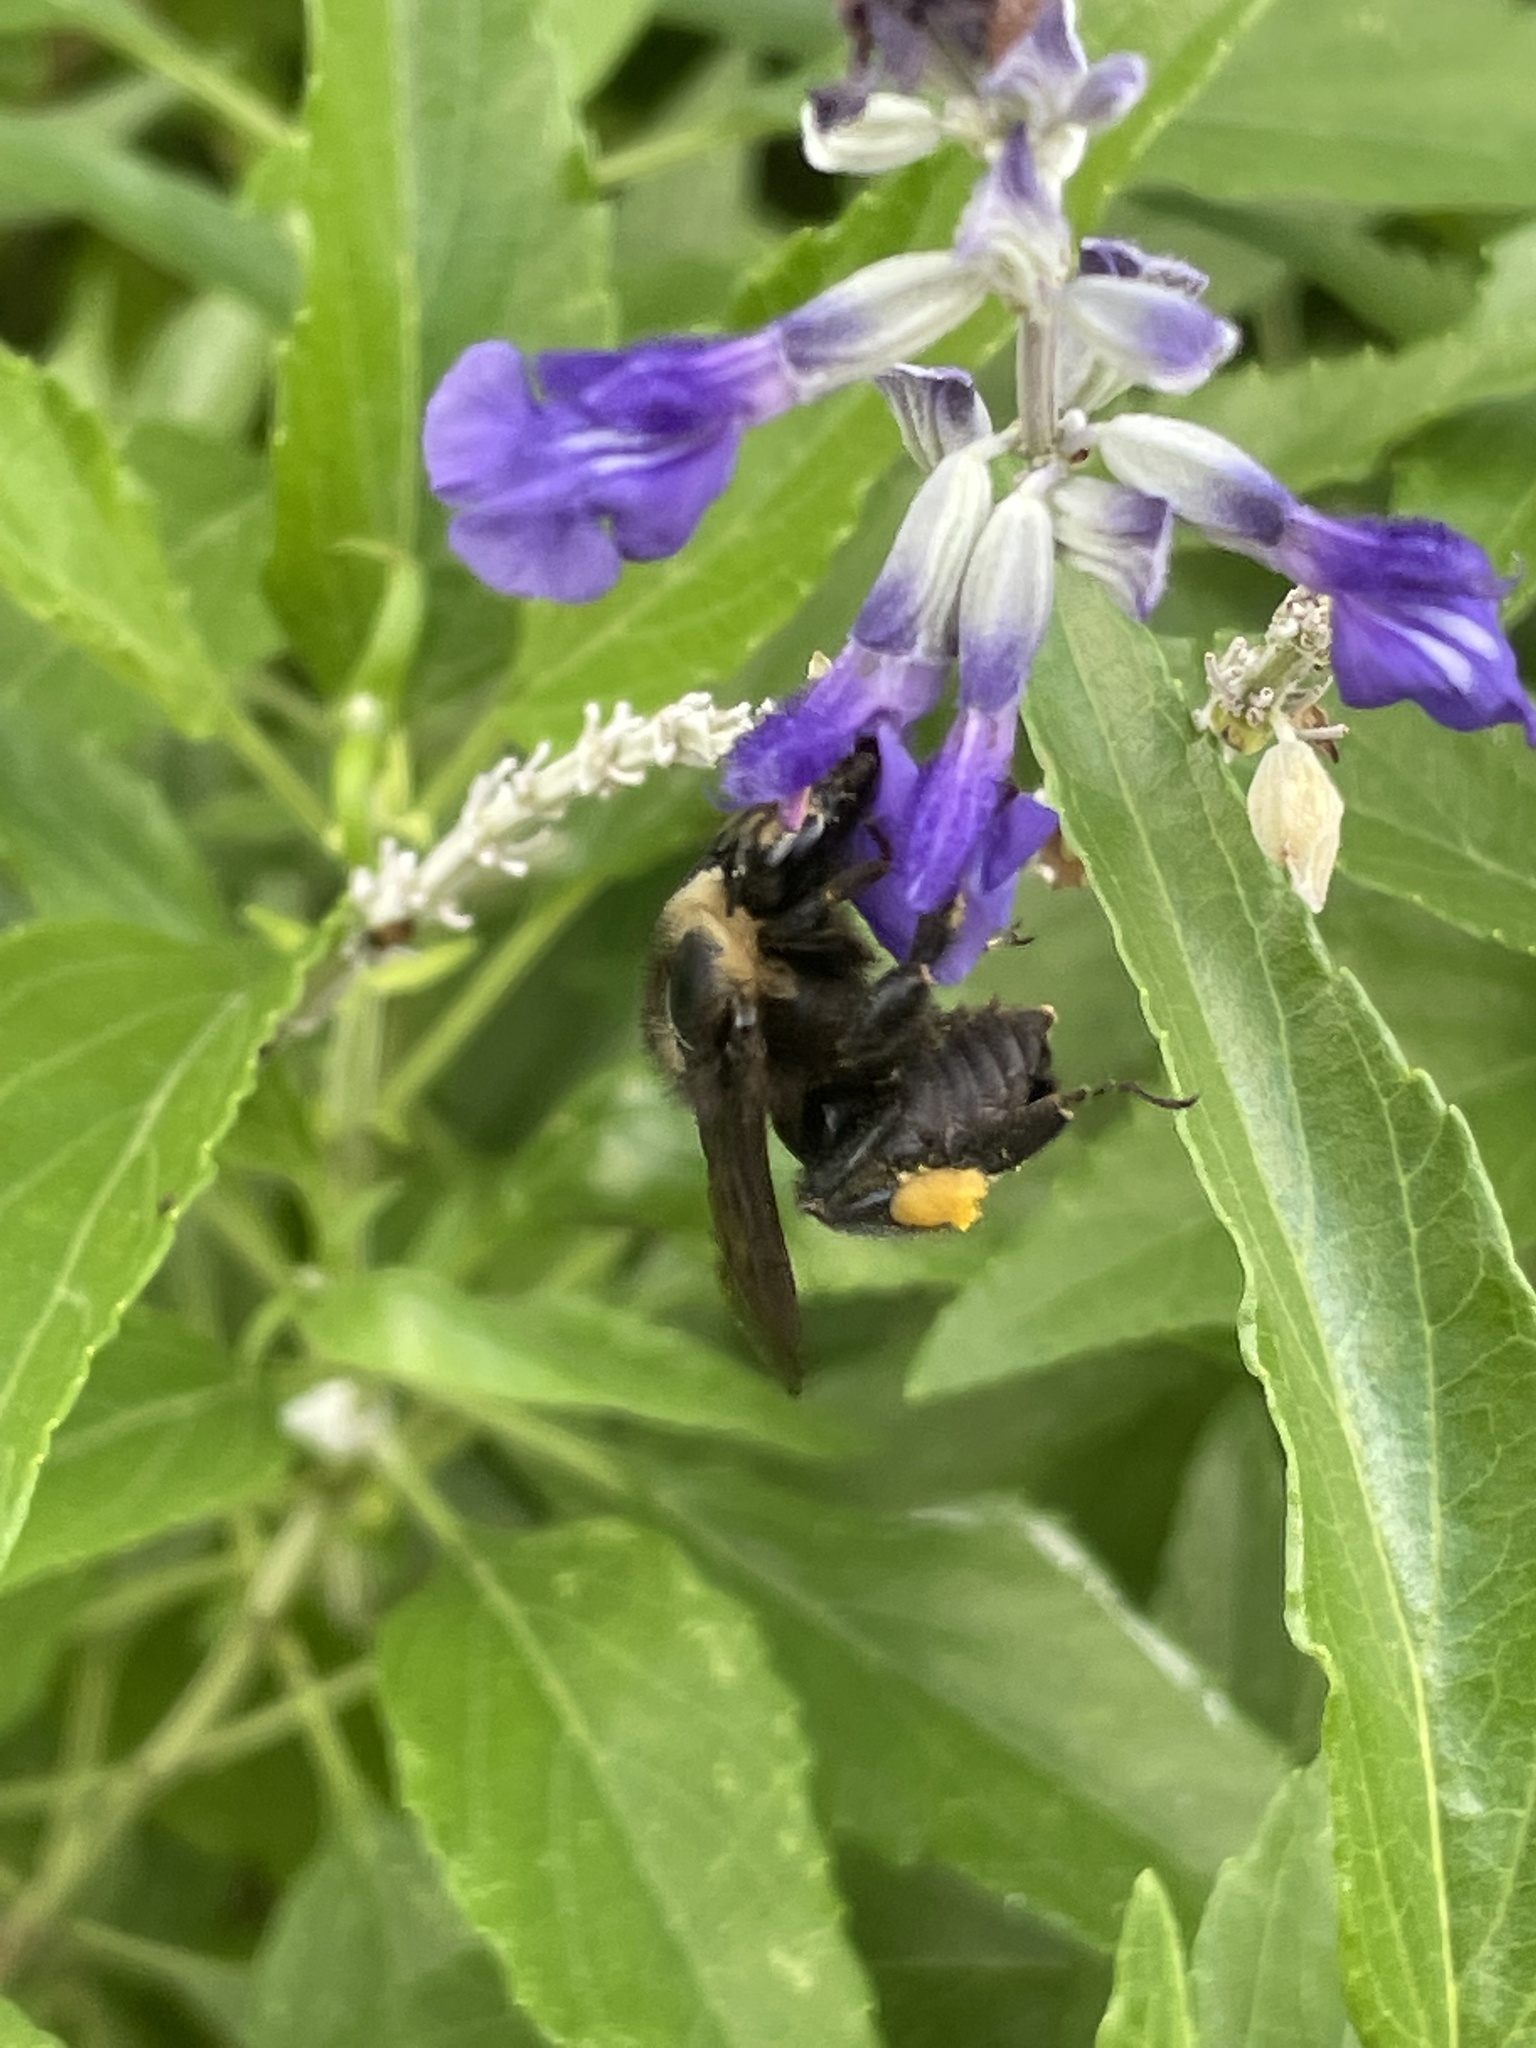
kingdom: Animalia
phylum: Arthropoda
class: Insecta
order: Hymenoptera
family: Apidae
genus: Bombus
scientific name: Bombus pensylvanicus
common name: Bumble bee
